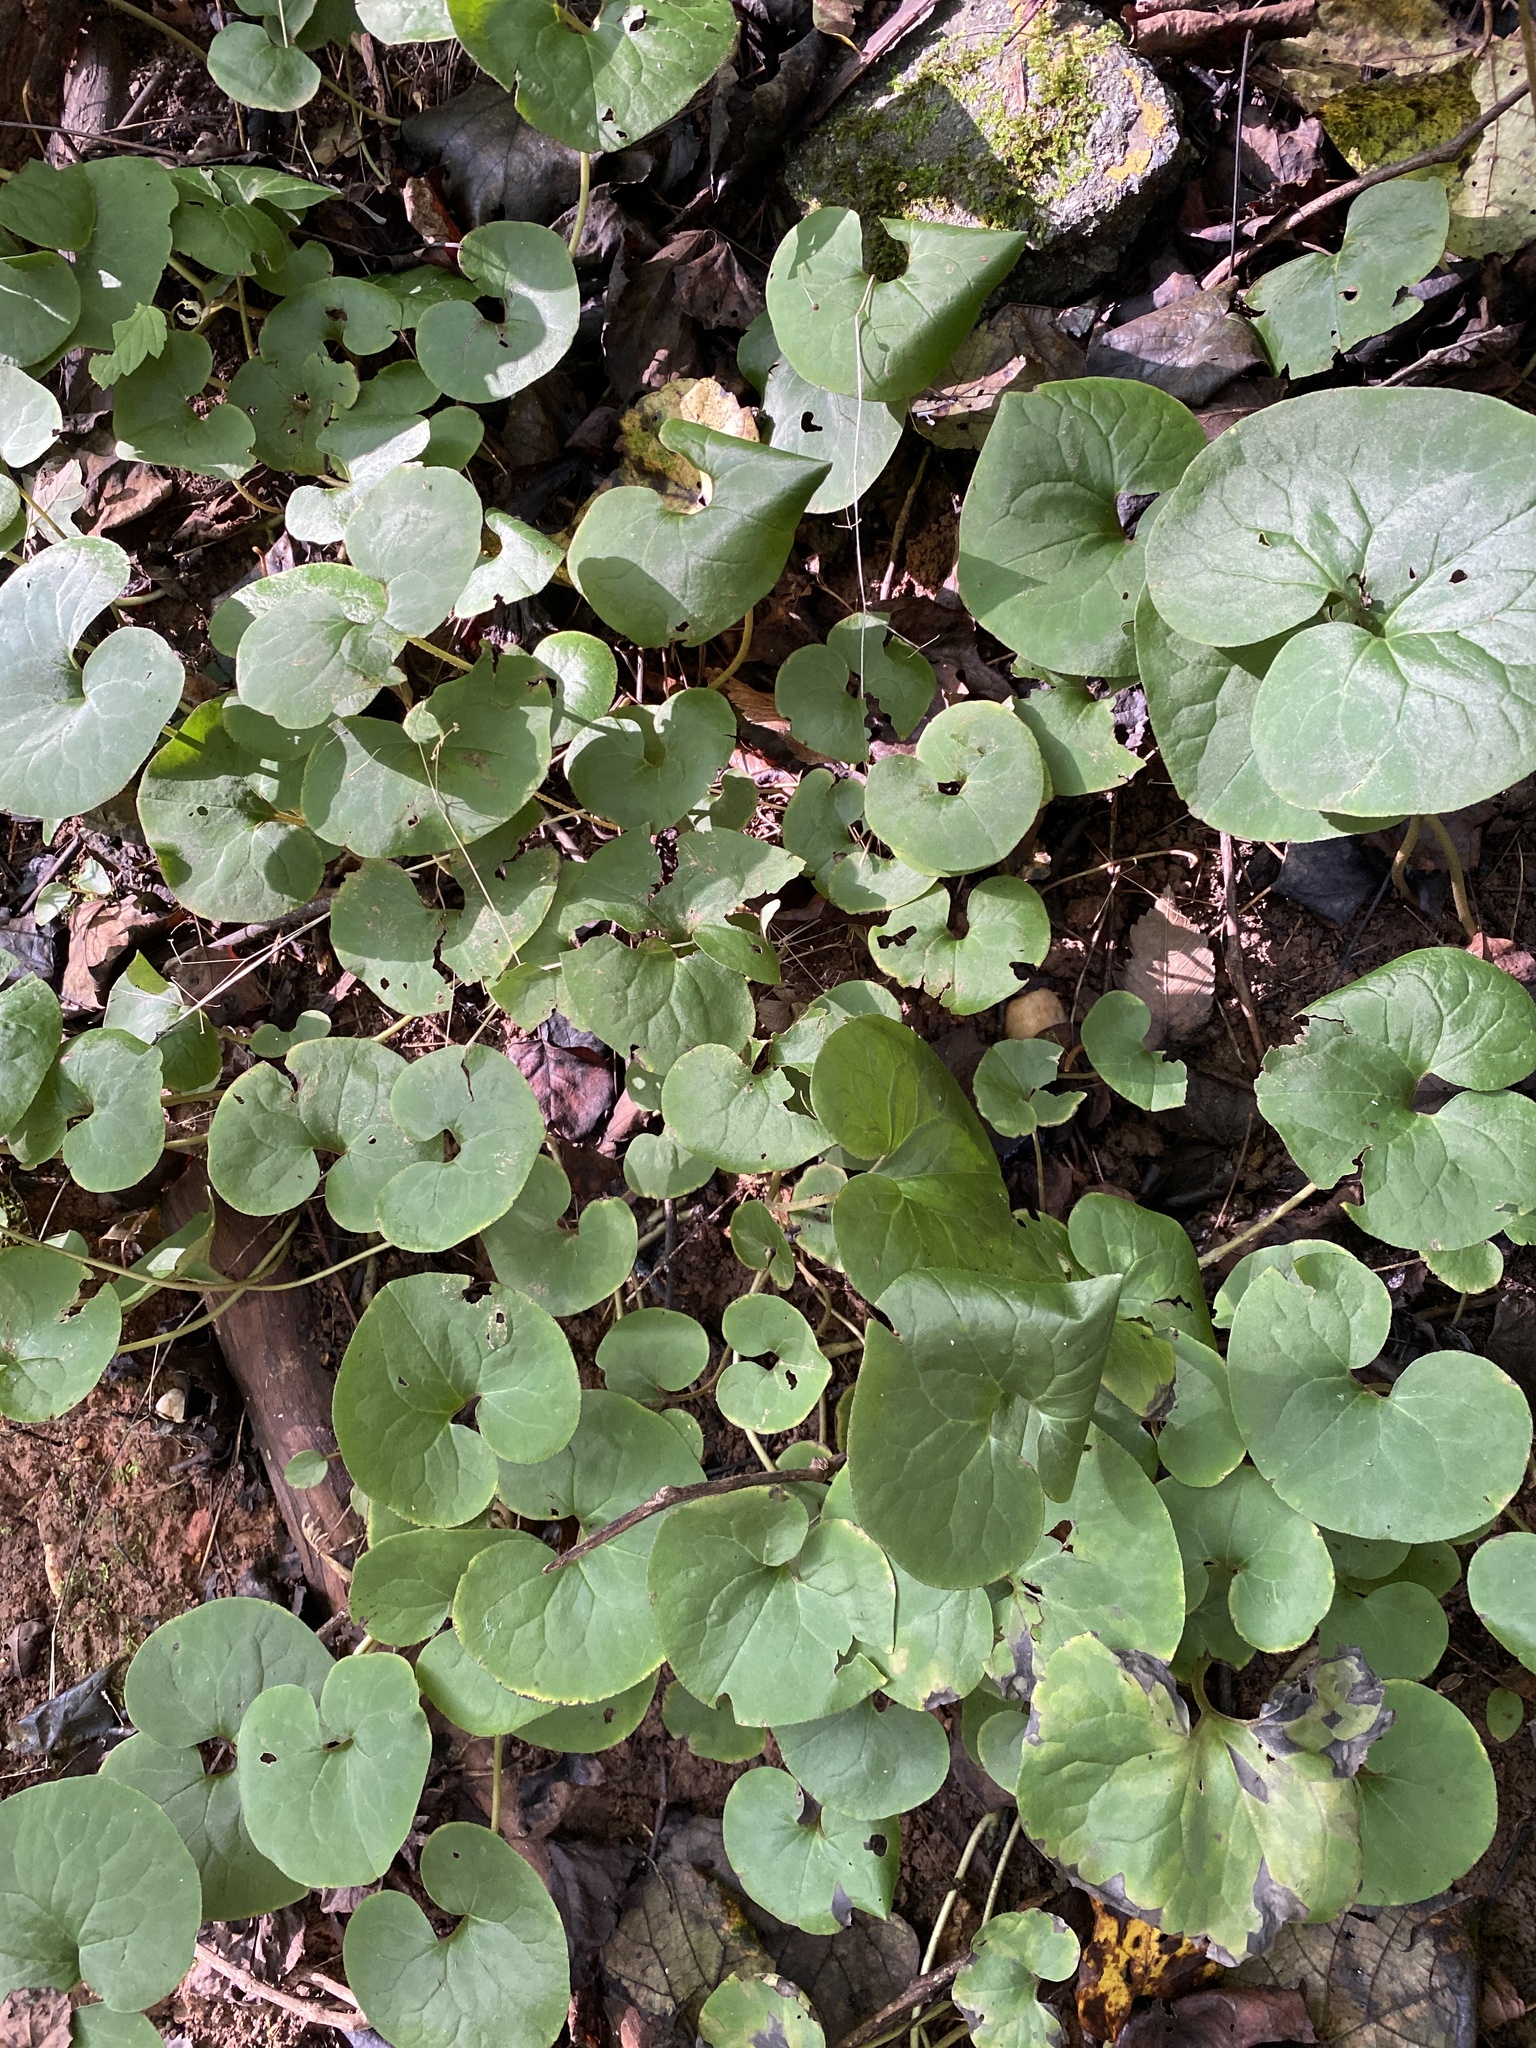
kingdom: Plantae
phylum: Tracheophyta
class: Magnoliopsida
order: Piperales
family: Aristolochiaceae
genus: Asarum
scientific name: Asarum canadense
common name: Wild ginger
